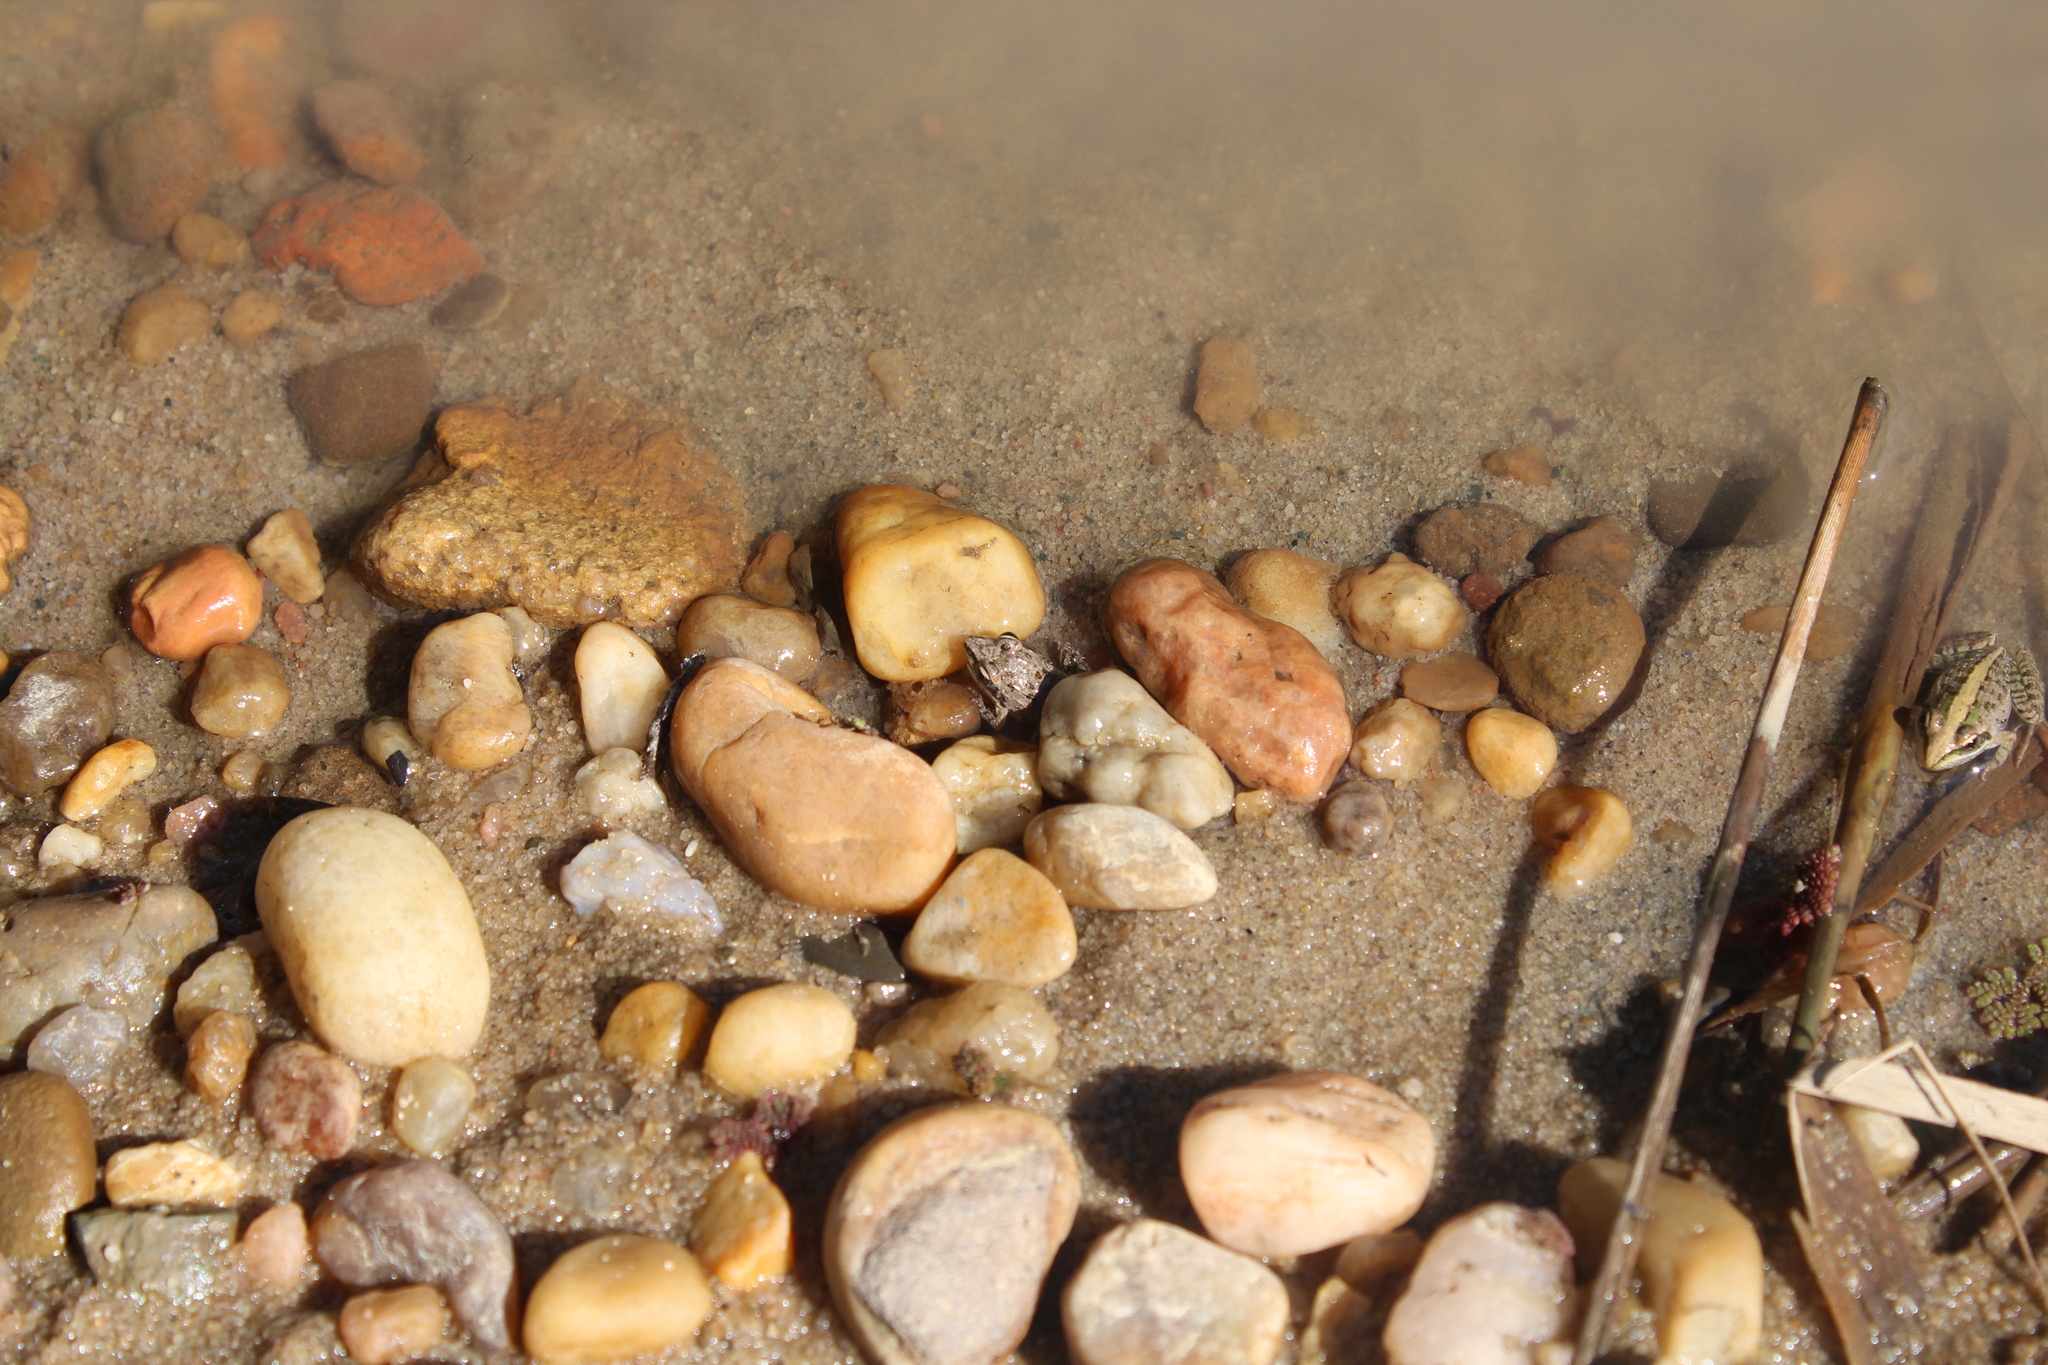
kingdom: Animalia
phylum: Chordata
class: Amphibia
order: Anura
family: Ptychadenidae
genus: Ptychadena
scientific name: Ptychadena mascareniensis
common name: Mascarene grass frog
